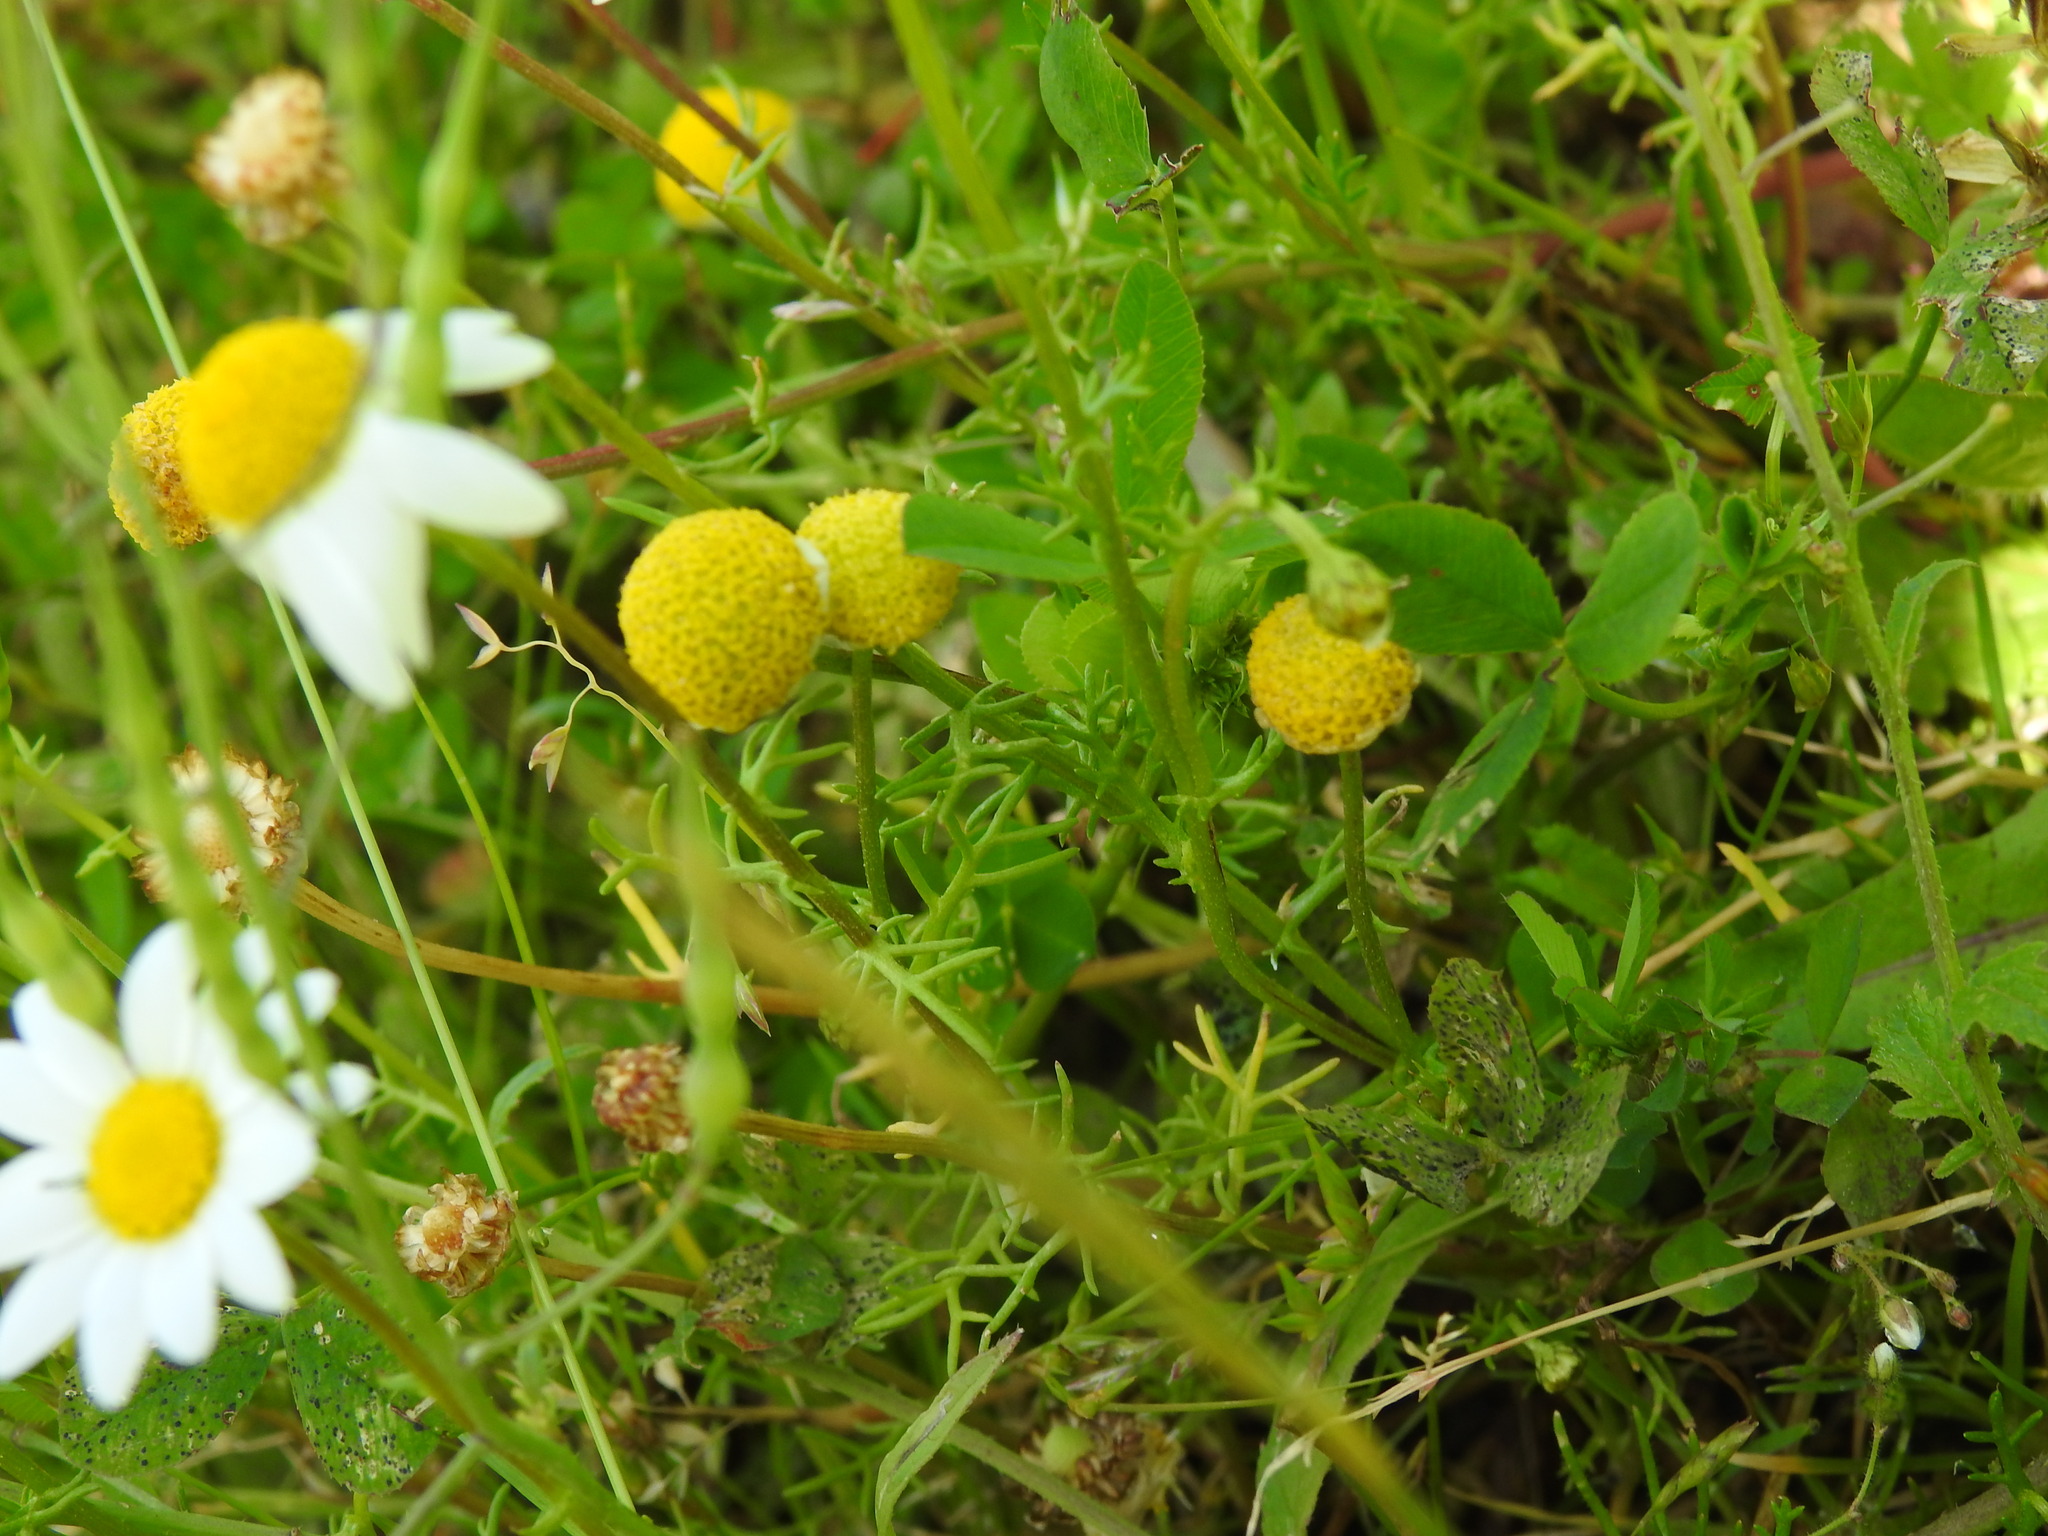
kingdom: Plantae
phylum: Tracheophyta
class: Magnoliopsida
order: Asterales
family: Asteraceae
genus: Chamaemelum
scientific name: Chamaemelum fuscatum
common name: Chamomile
